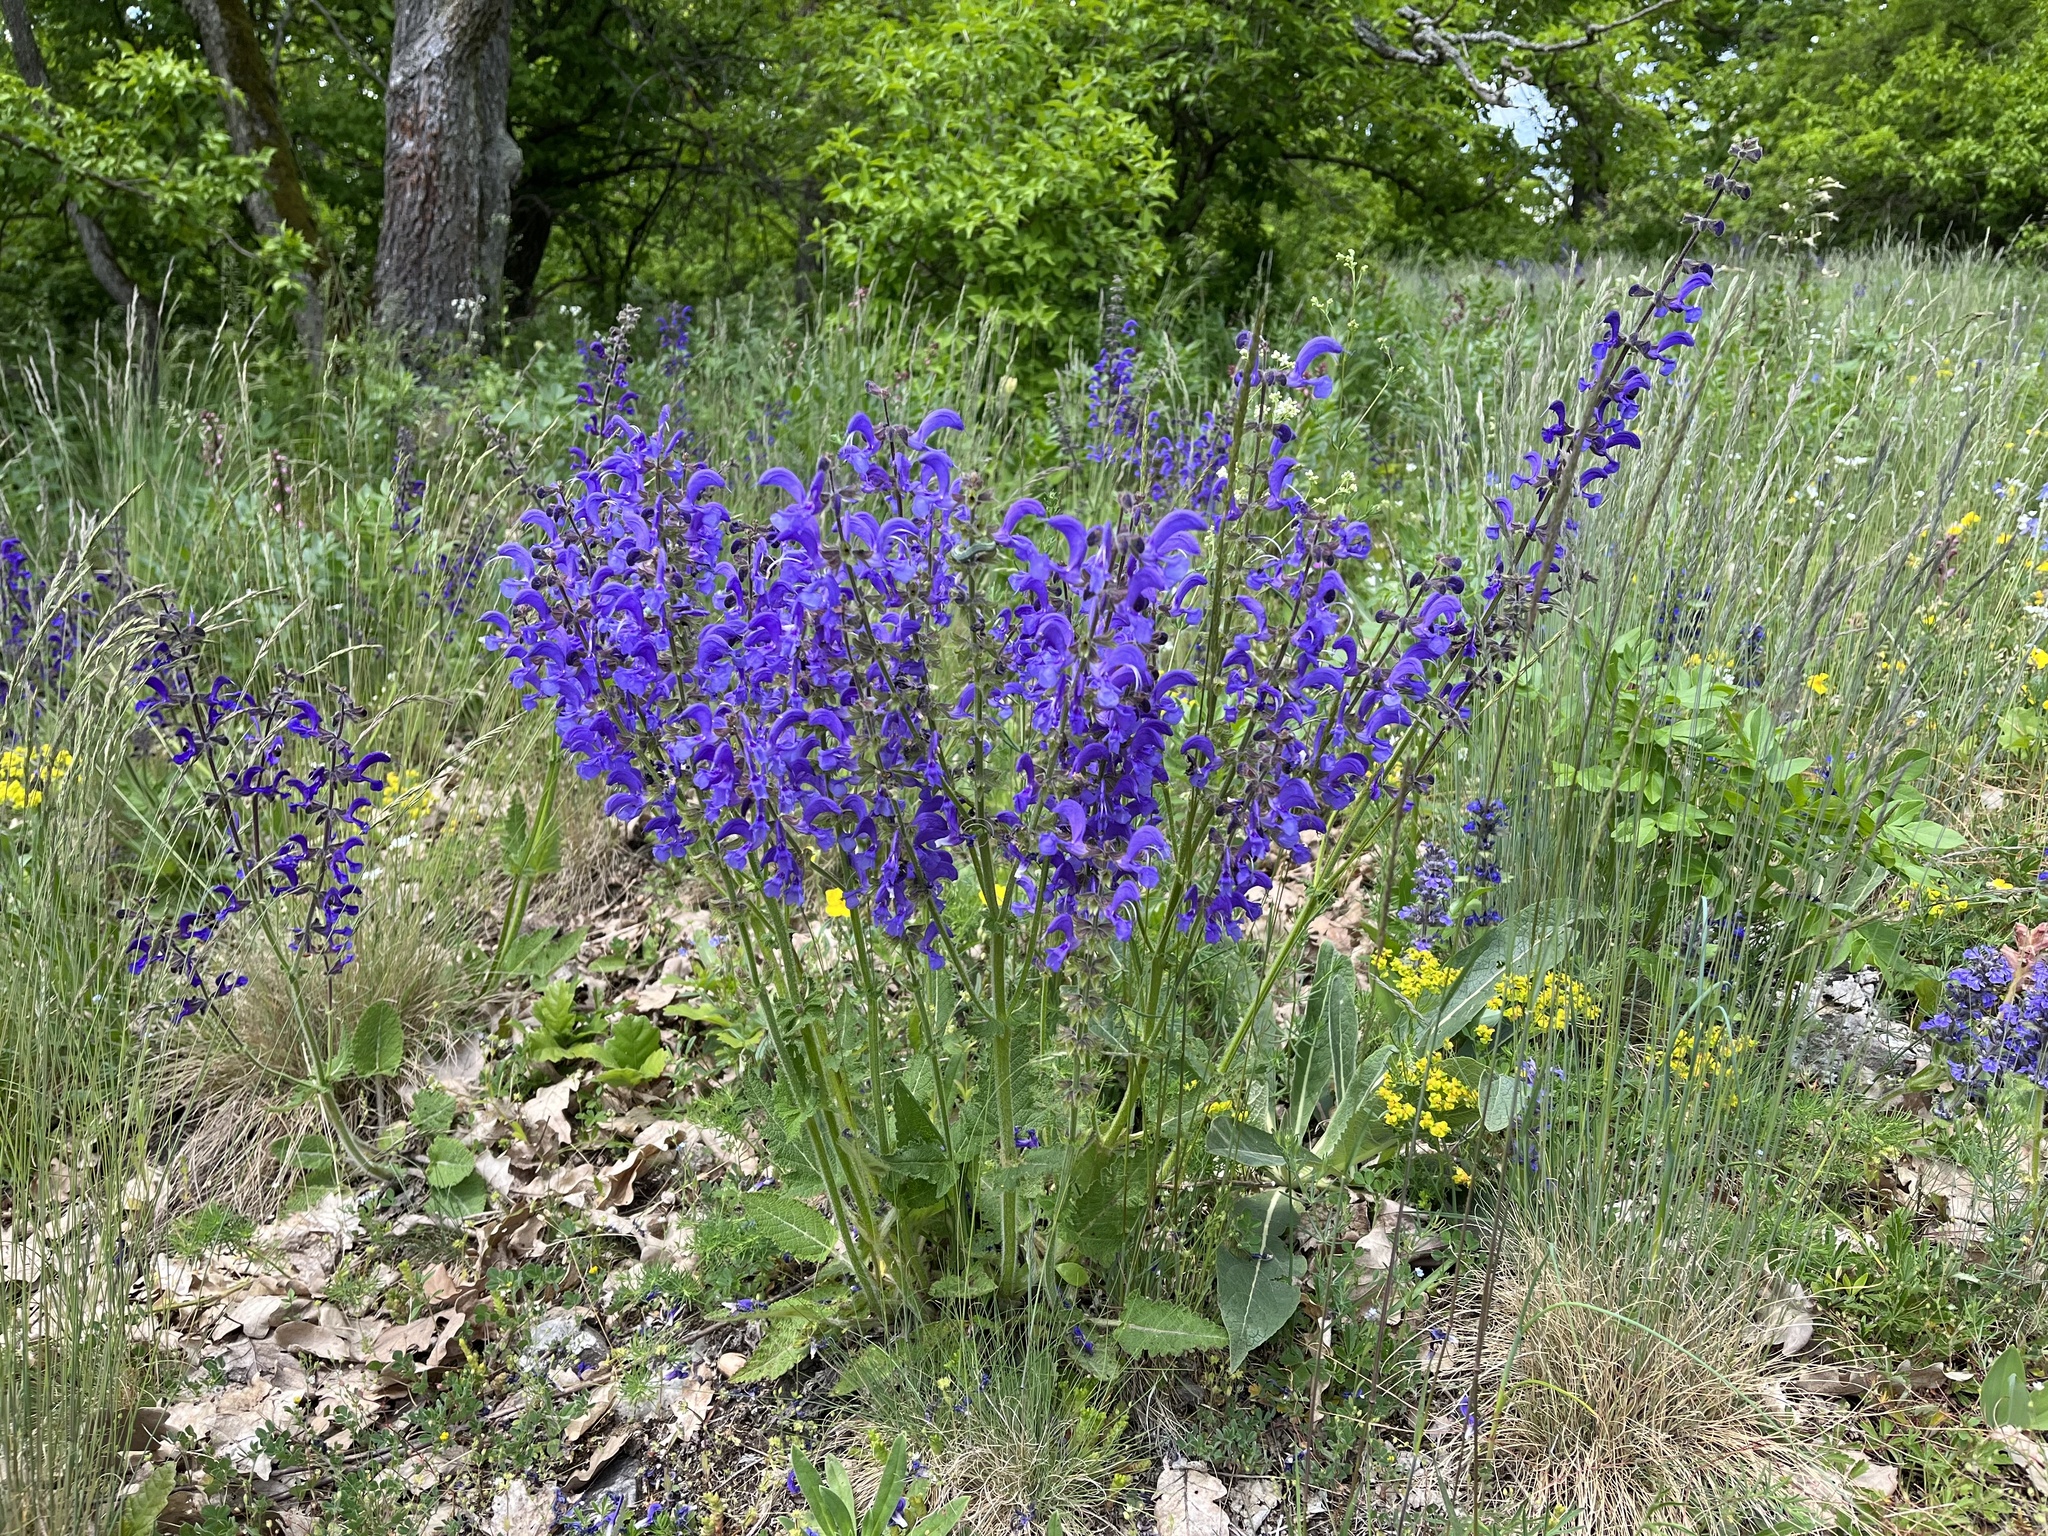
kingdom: Plantae
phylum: Tracheophyta
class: Magnoliopsida
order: Lamiales
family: Lamiaceae
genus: Salvia
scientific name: Salvia pratensis
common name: Meadow sage
